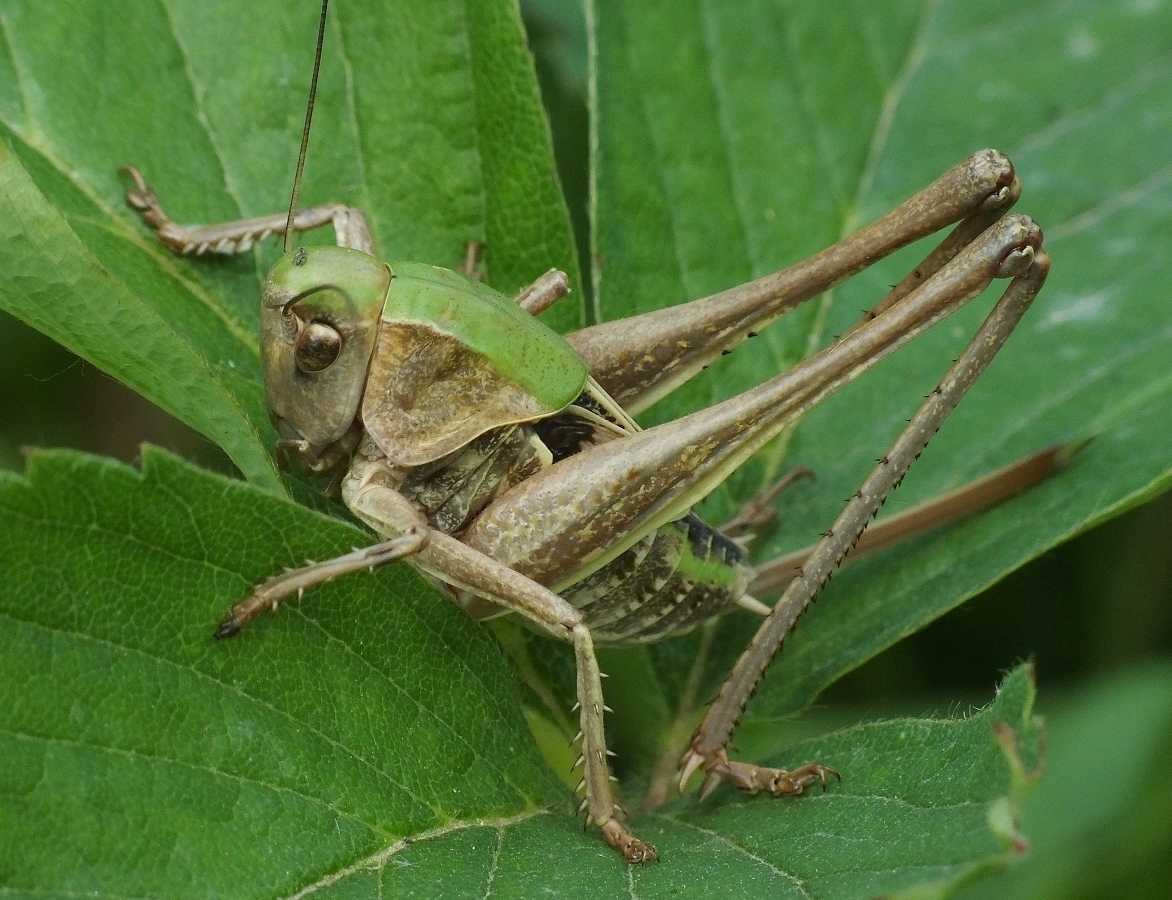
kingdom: Animalia
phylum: Arthropoda
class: Insecta
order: Orthoptera
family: Tettigoniidae
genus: Decticus
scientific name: Decticus verrucivorus
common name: Wart-biter
